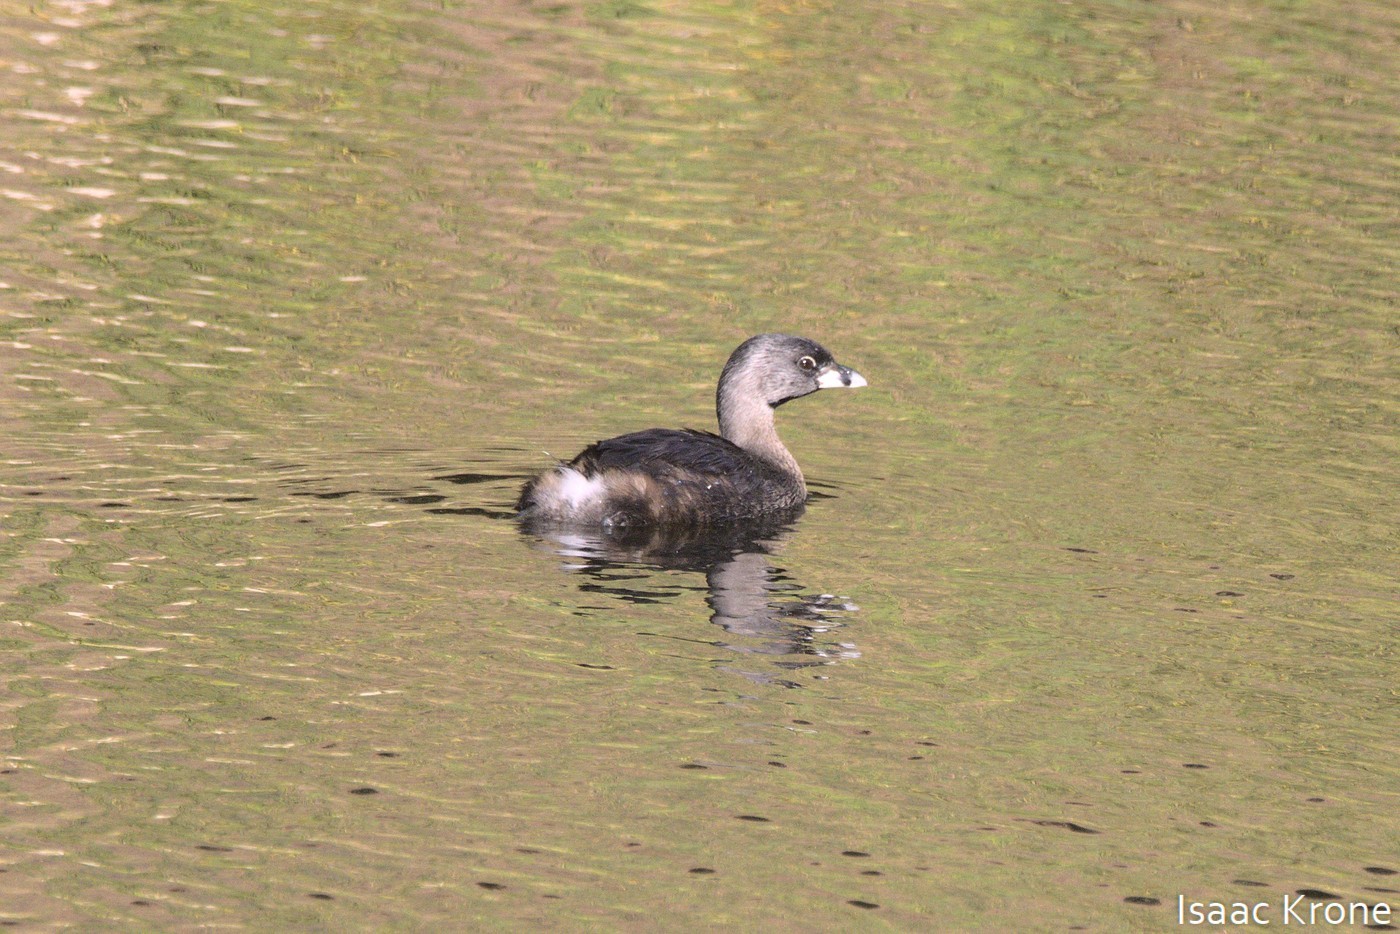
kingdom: Animalia
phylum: Chordata
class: Aves
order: Podicipediformes
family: Podicipedidae
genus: Podilymbus
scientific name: Podilymbus podiceps
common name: Pied-billed grebe
